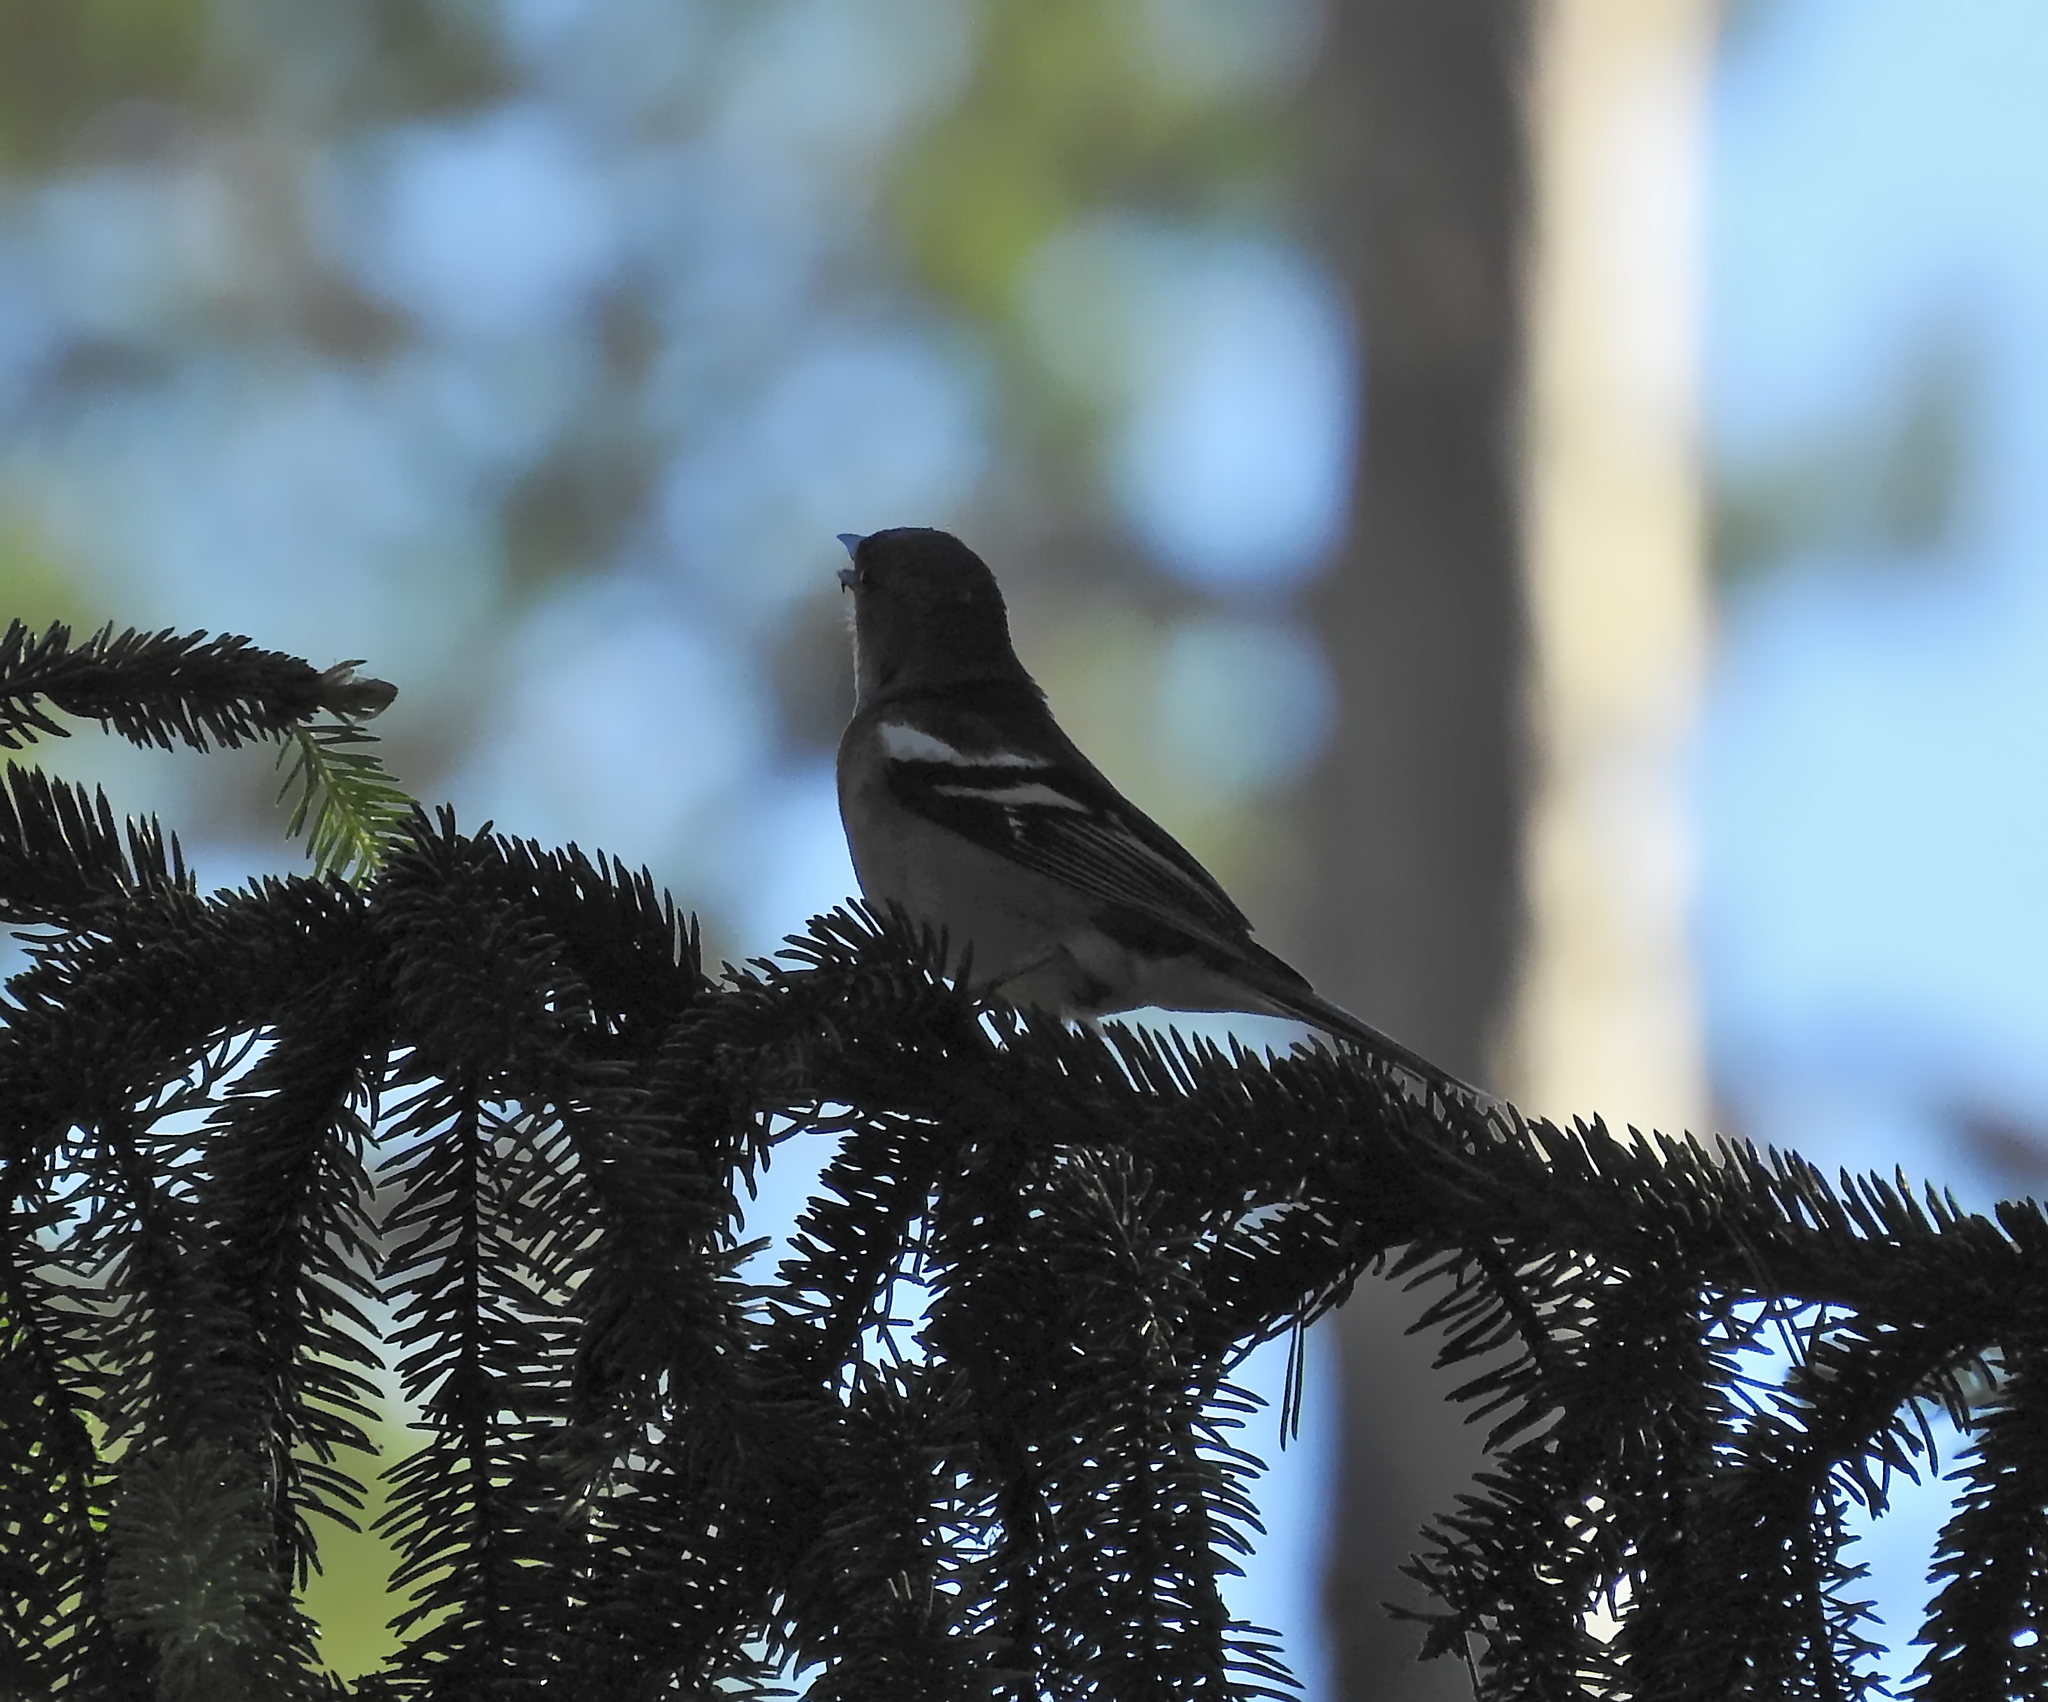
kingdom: Animalia
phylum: Chordata
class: Aves
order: Passeriformes
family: Fringillidae
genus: Fringilla
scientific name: Fringilla coelebs
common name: Common chaffinch
